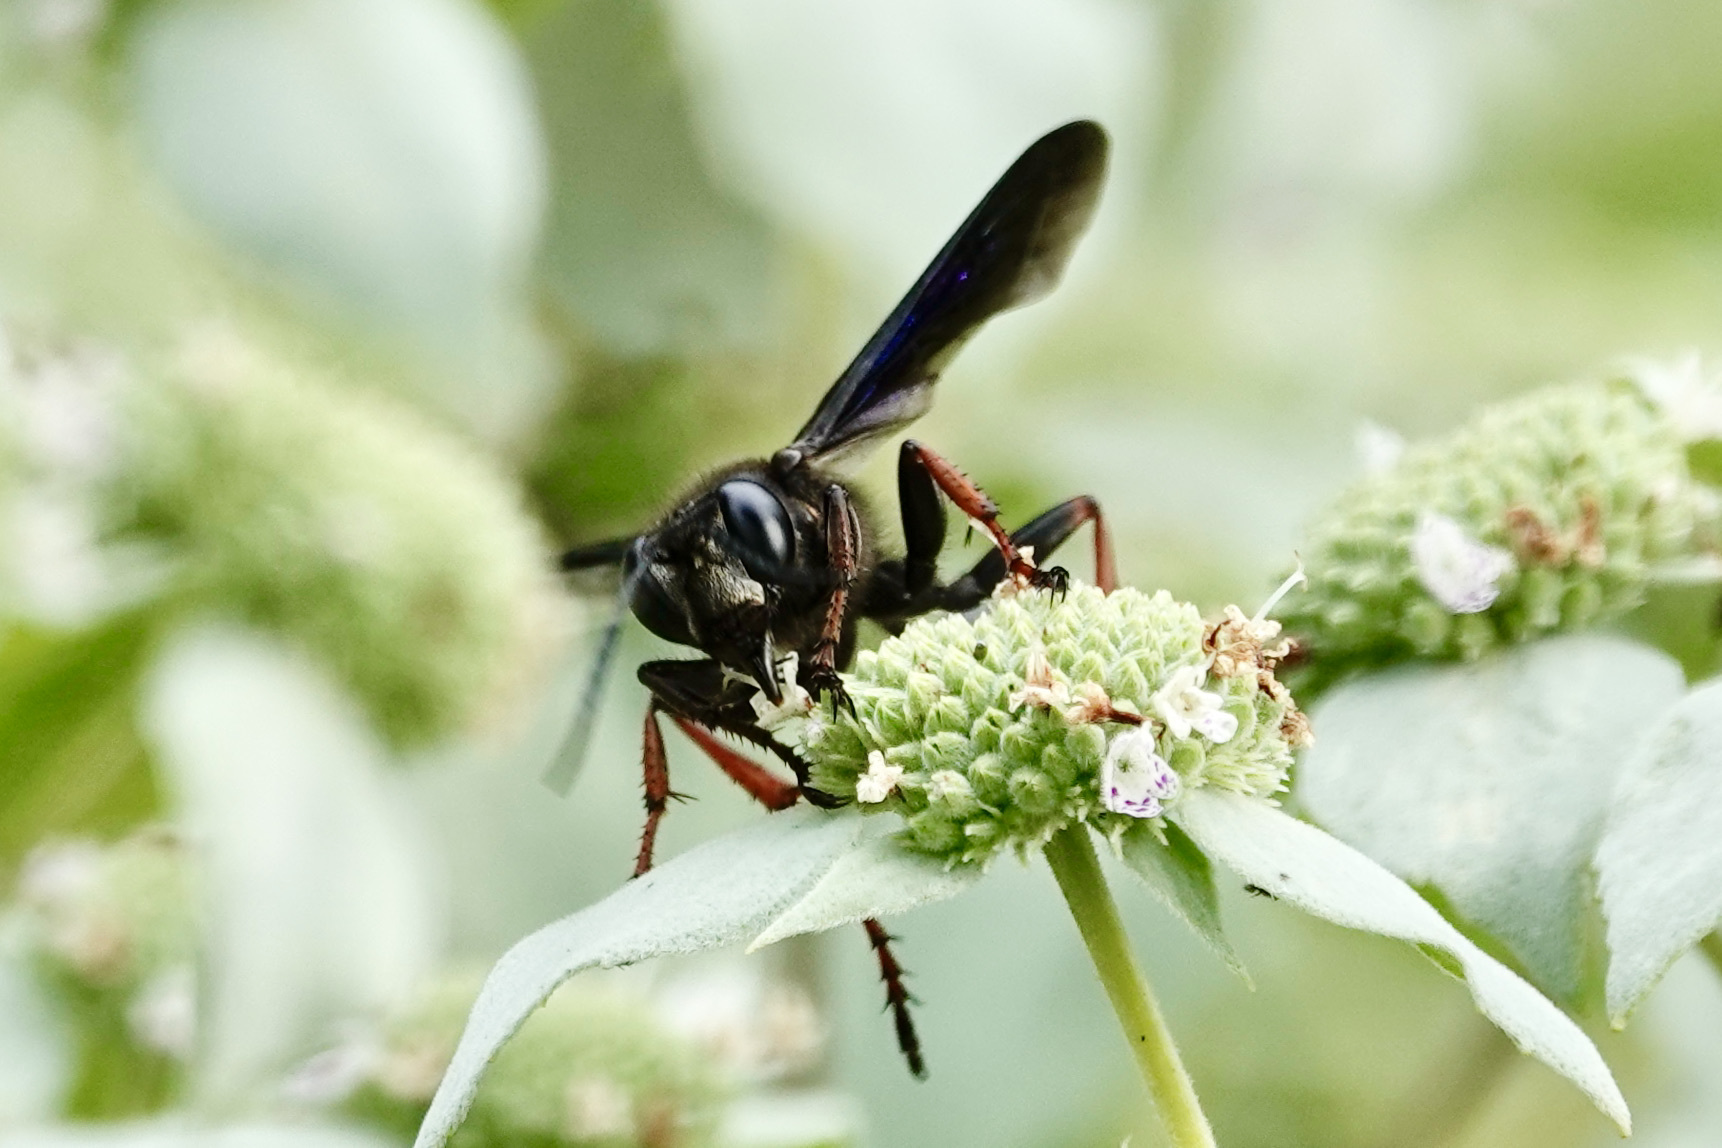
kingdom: Animalia
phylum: Arthropoda
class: Insecta
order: Hymenoptera
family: Sphecidae
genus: Isodontia
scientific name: Isodontia auripes
